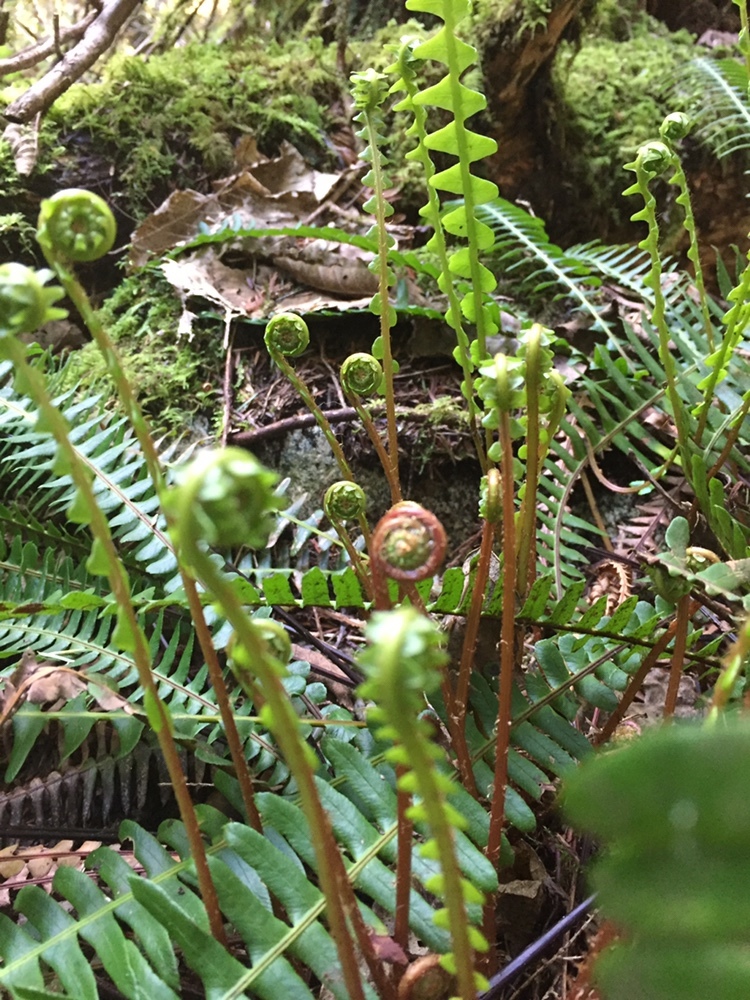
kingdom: Plantae
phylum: Tracheophyta
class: Polypodiopsida
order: Polypodiales
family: Blechnaceae
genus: Struthiopteris
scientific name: Struthiopteris spicant
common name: Deer fern
